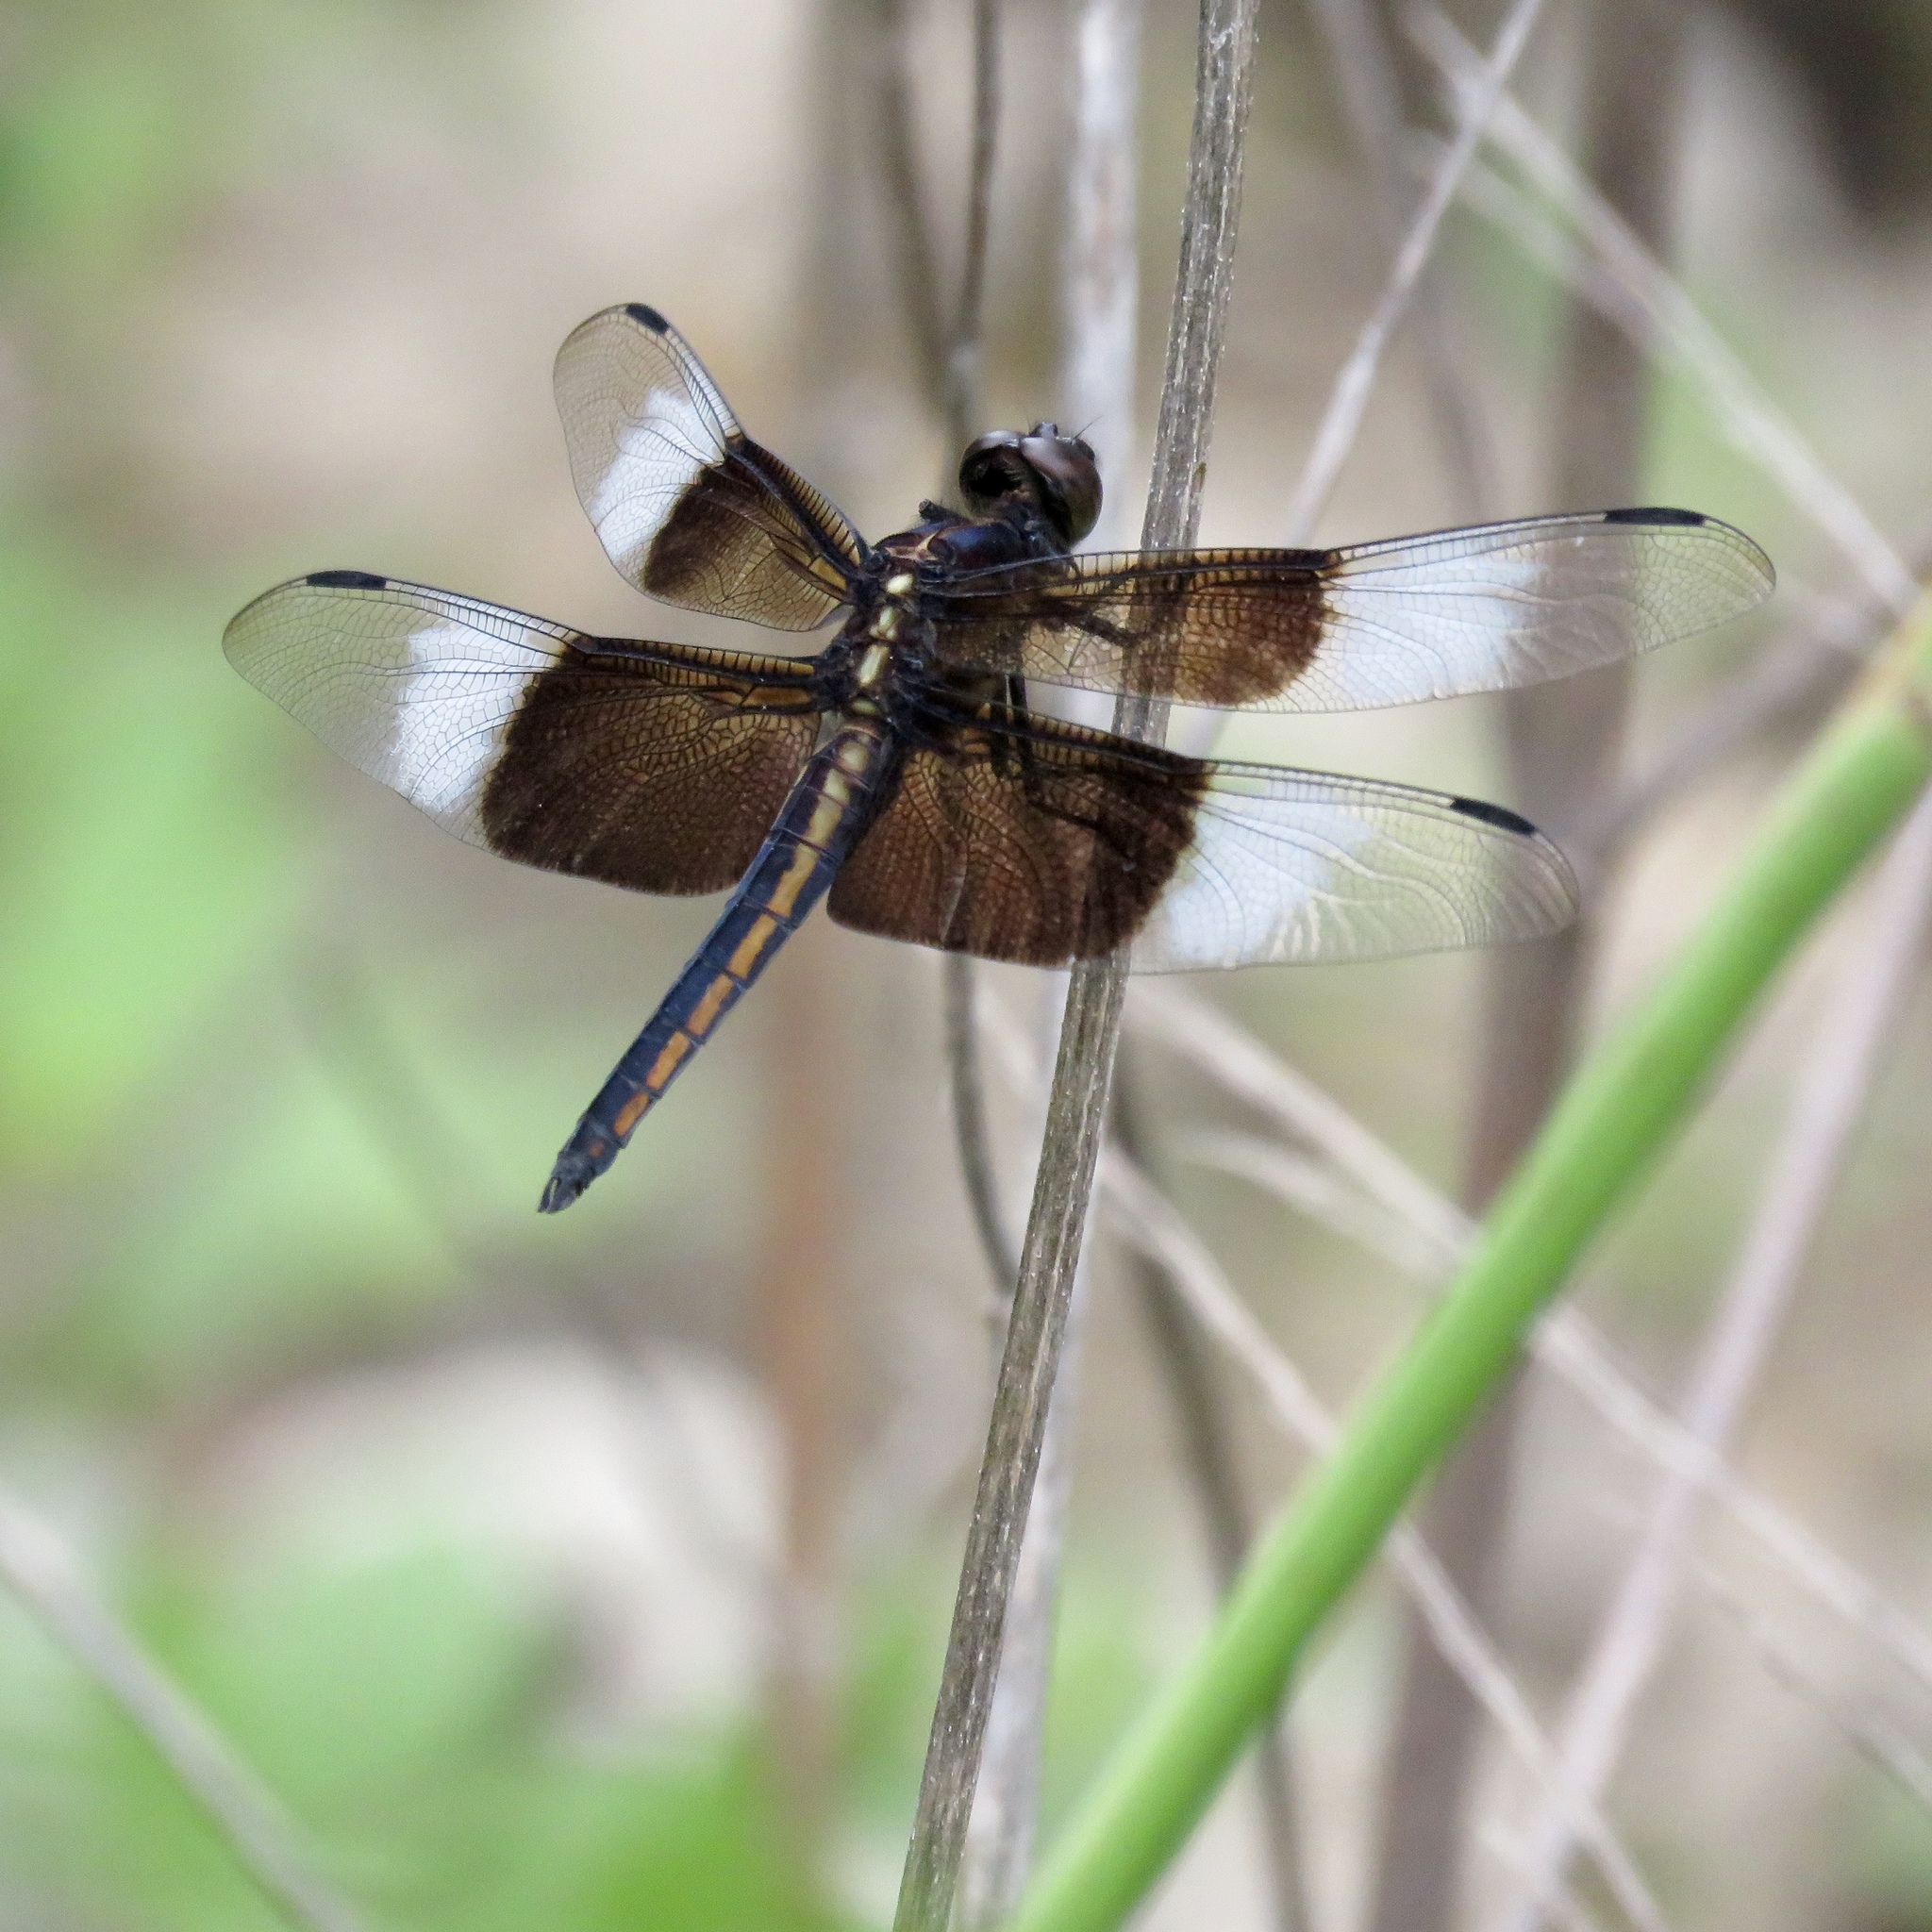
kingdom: Animalia
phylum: Arthropoda
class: Insecta
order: Odonata
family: Libellulidae
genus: Libellula
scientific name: Libellula luctuosa
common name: Widow skimmer
